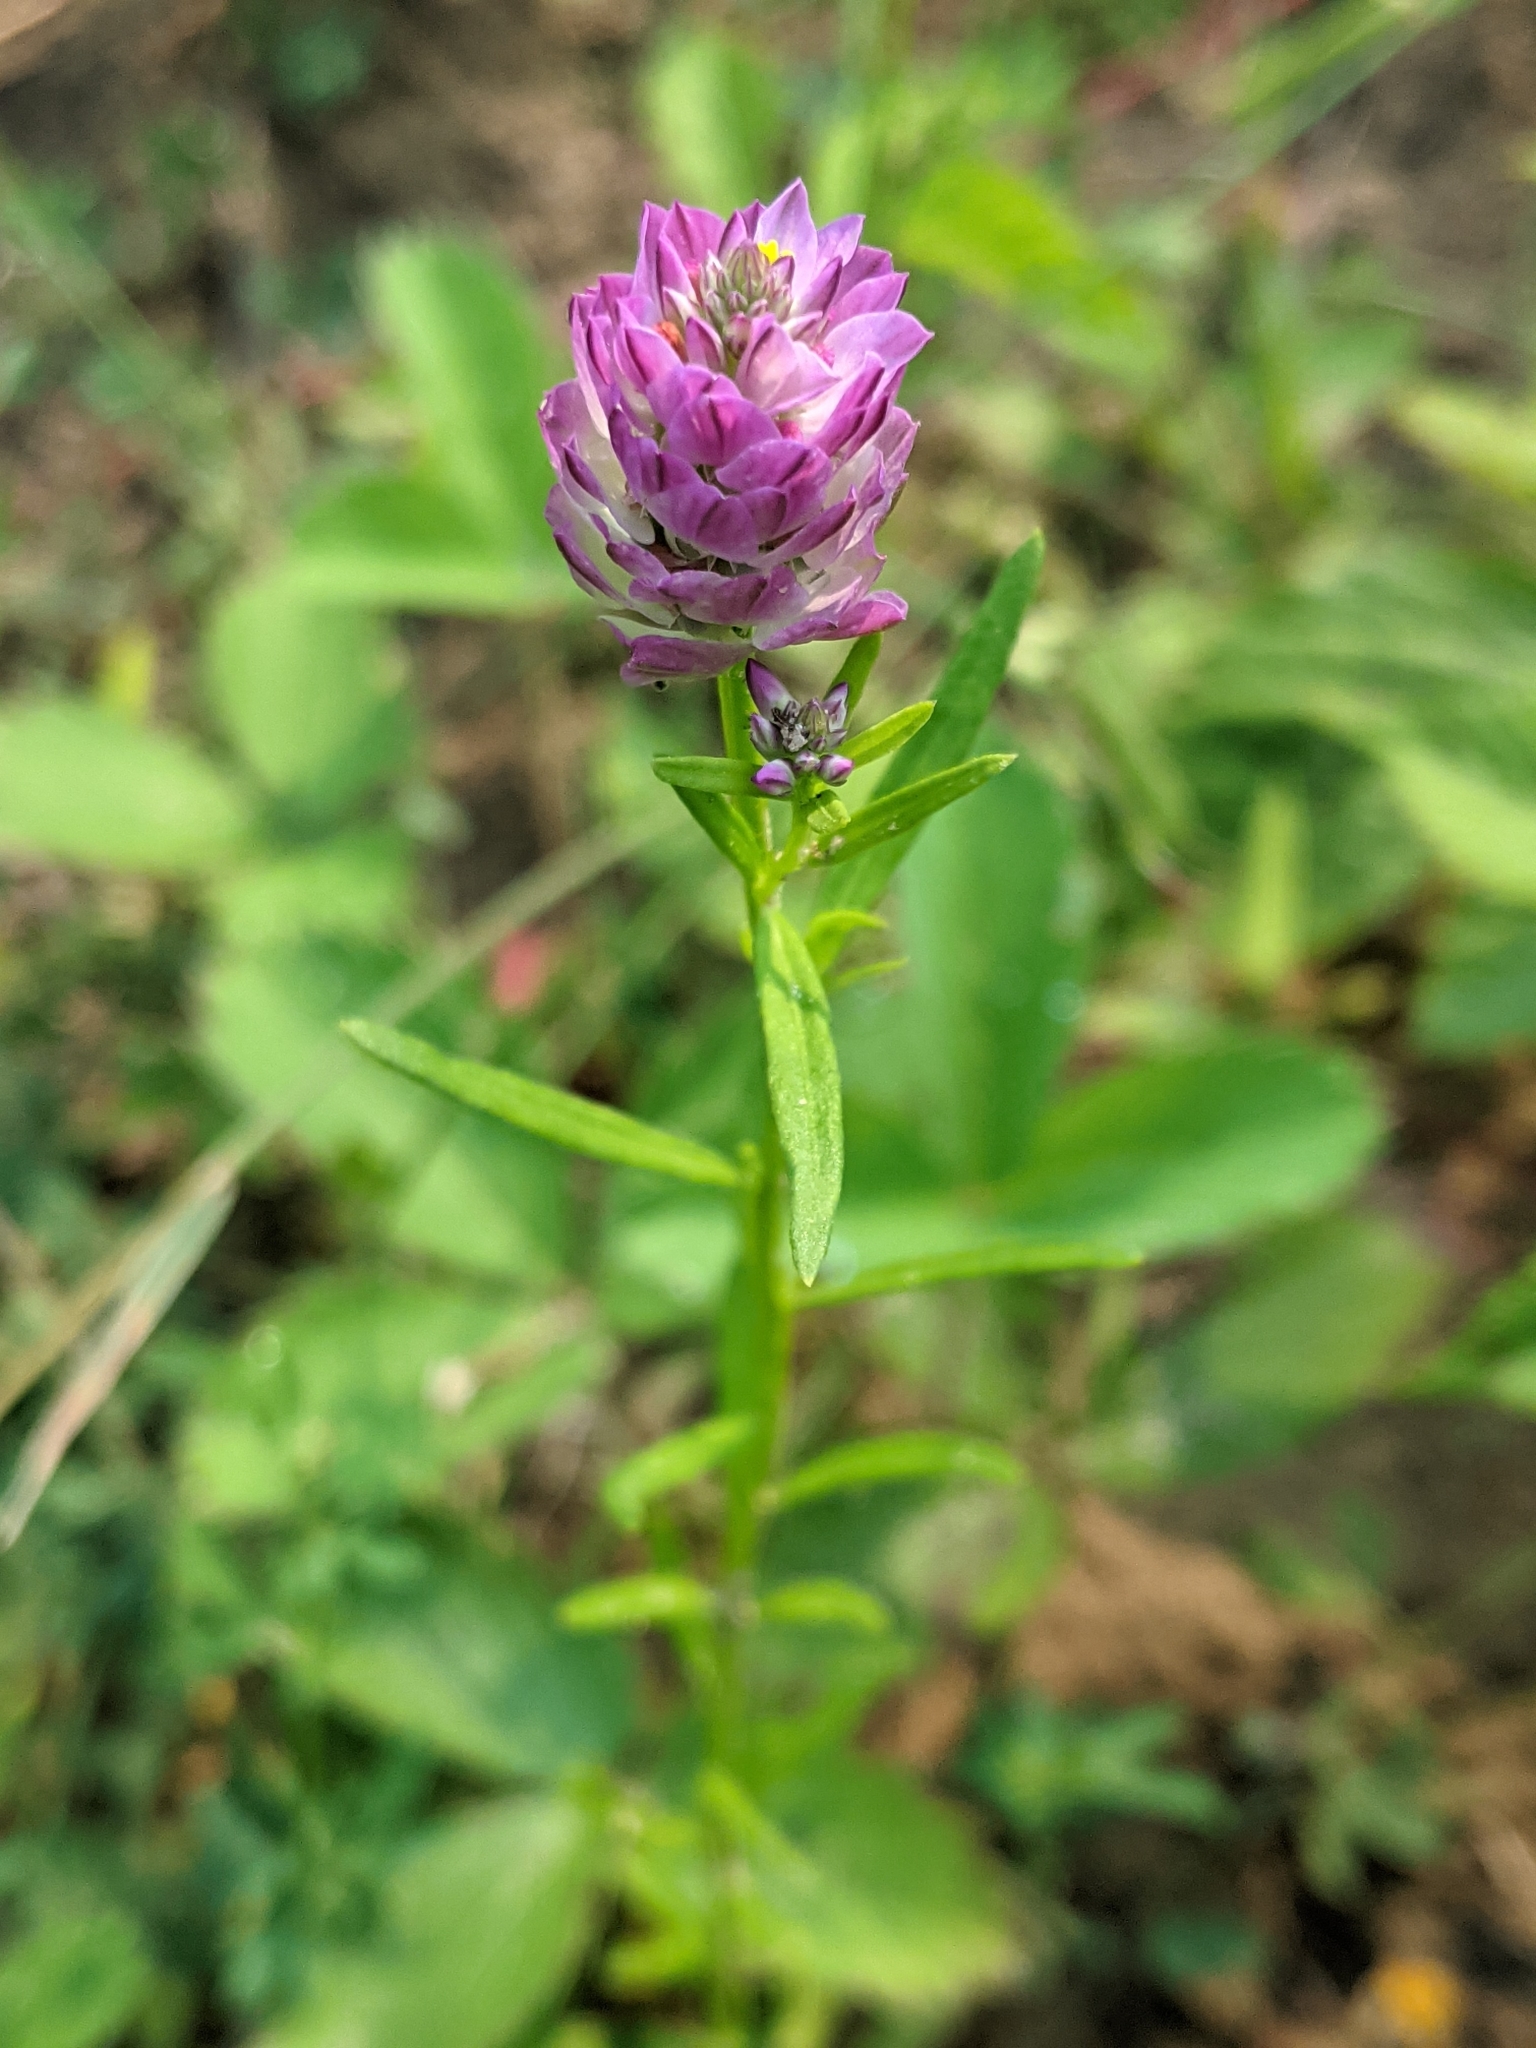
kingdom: Plantae
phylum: Tracheophyta
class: Magnoliopsida
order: Fabales
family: Polygalaceae
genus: Polygala
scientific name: Polygala sanguinea
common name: Blood milkwort
